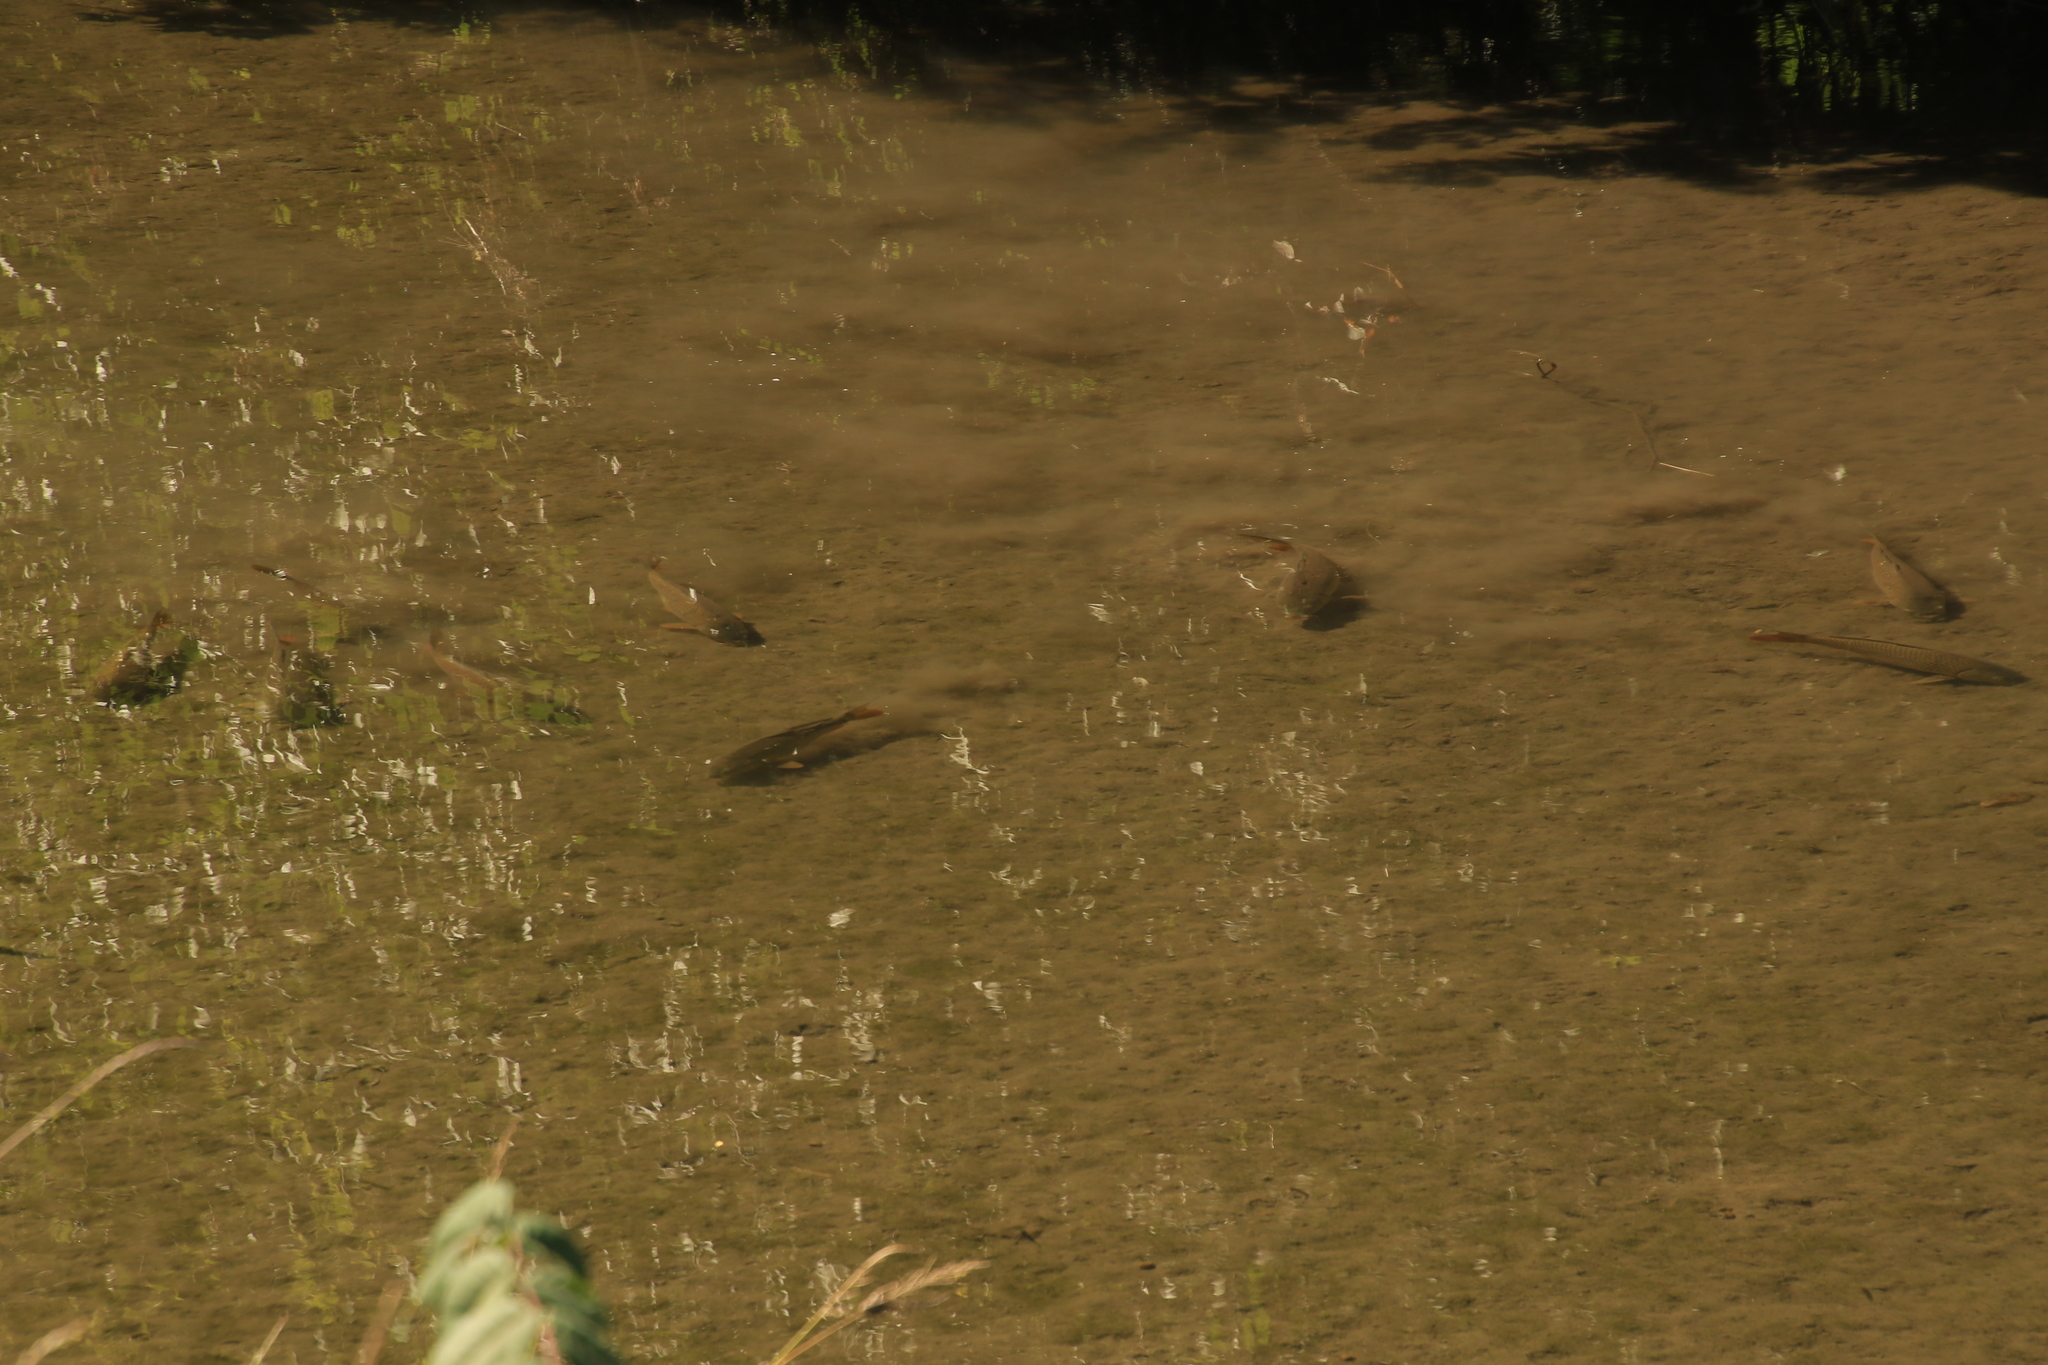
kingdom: Animalia
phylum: Chordata
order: Cypriniformes
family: Cyprinidae
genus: Cyprinus
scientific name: Cyprinus carpio
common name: Common carp
